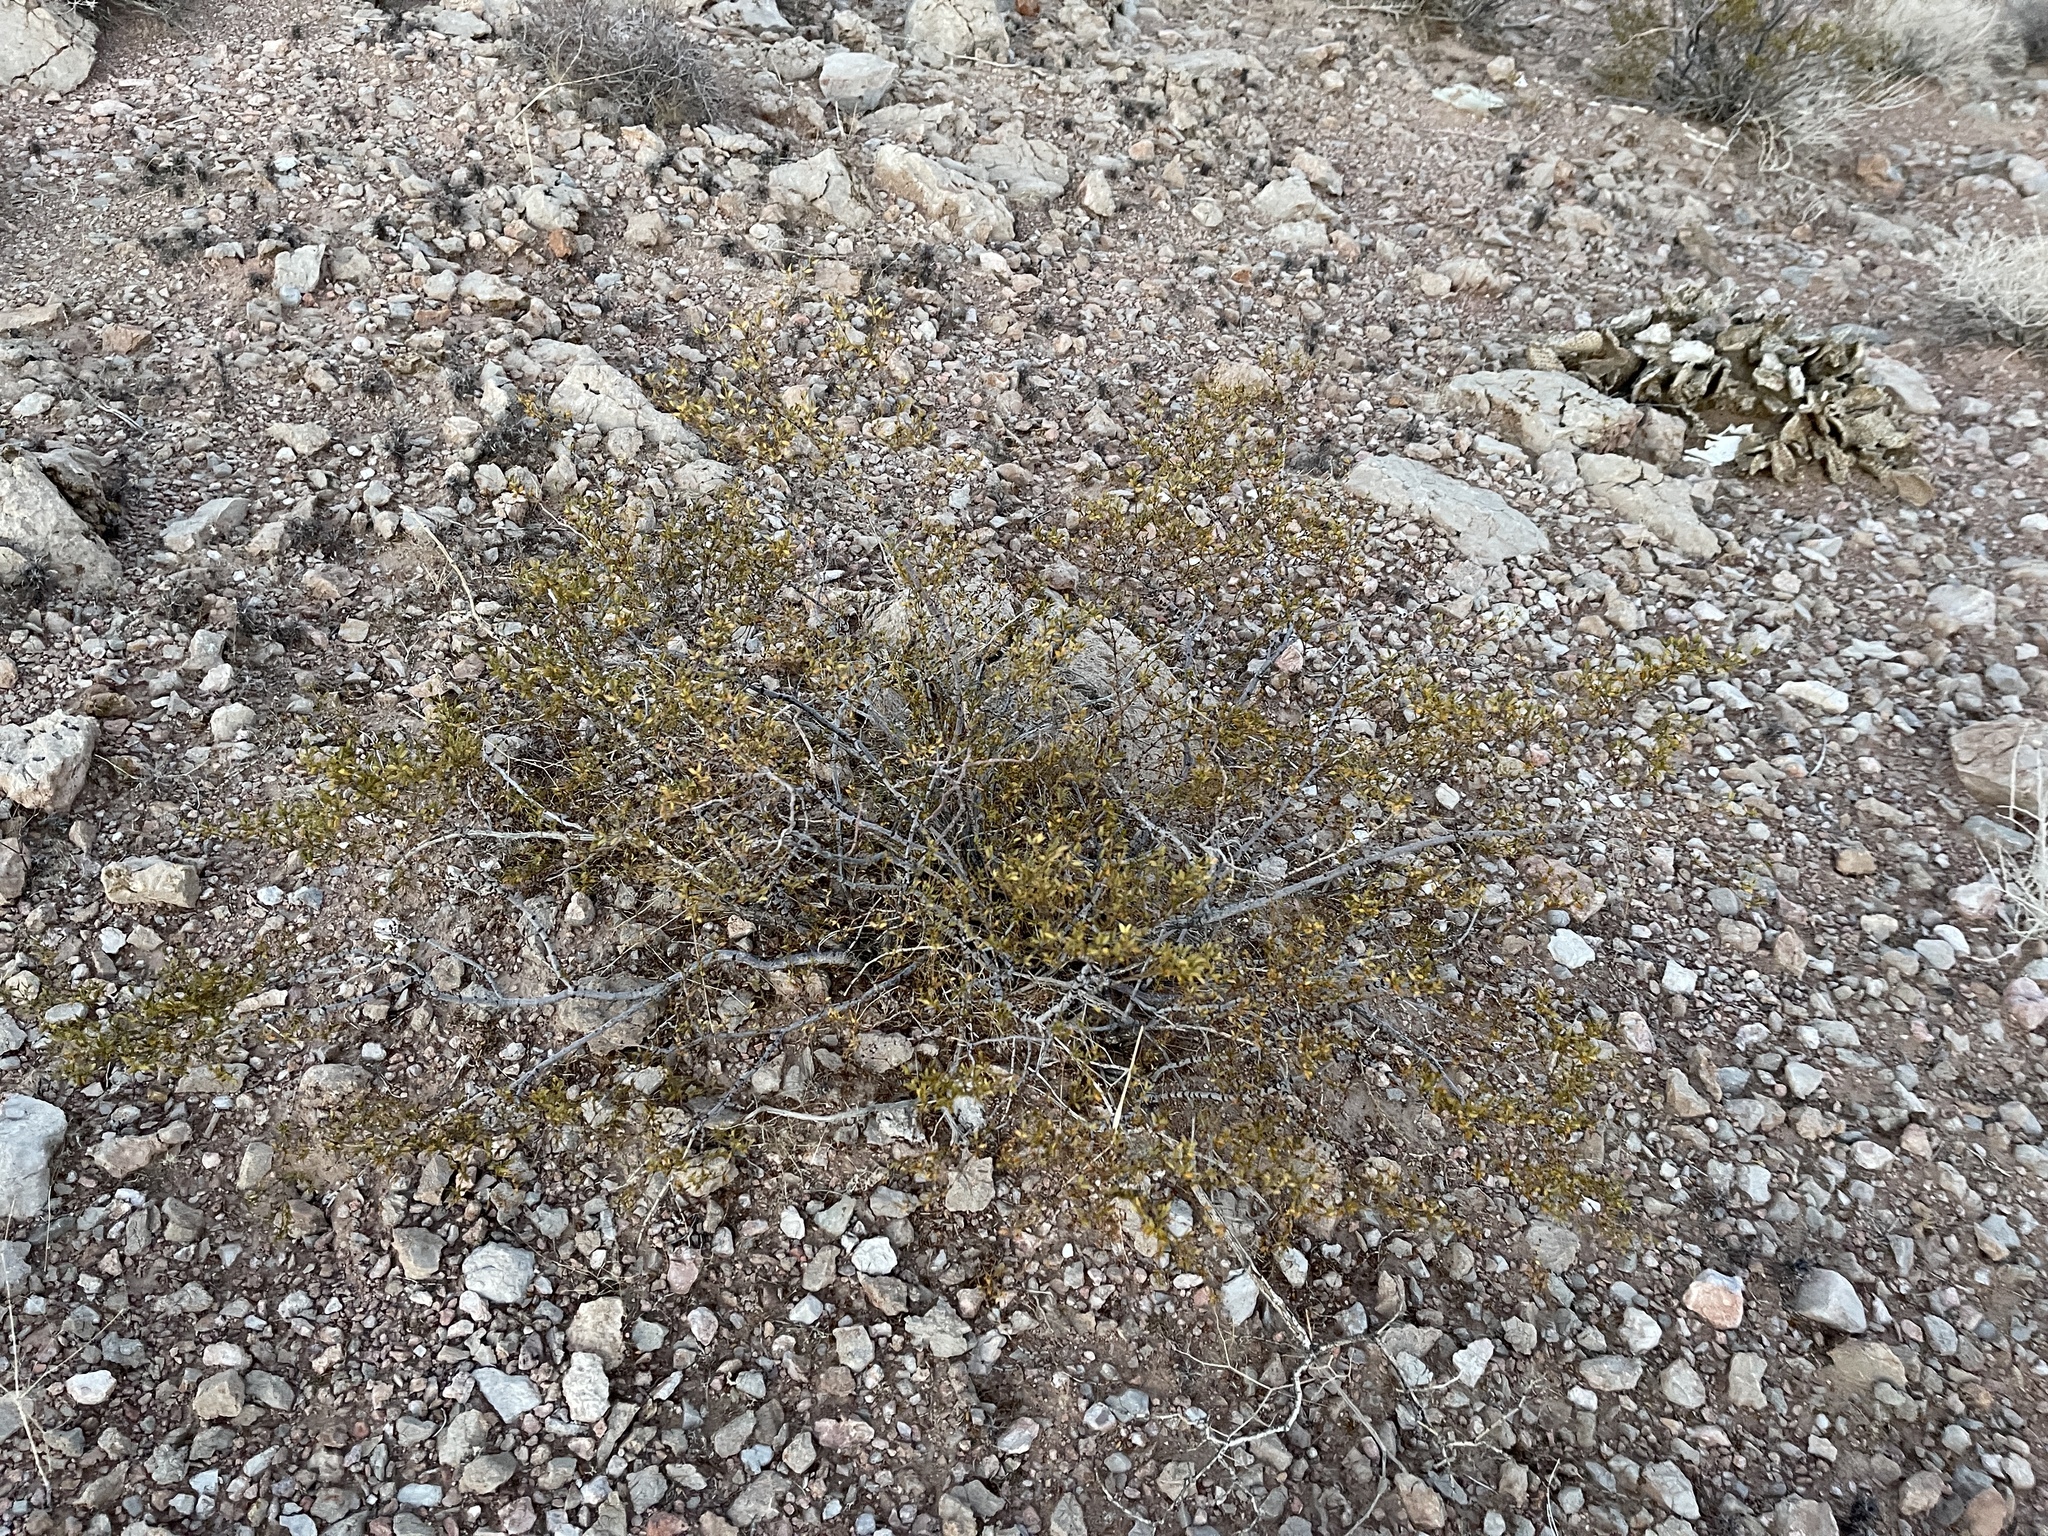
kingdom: Plantae
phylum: Tracheophyta
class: Magnoliopsida
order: Zygophyllales
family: Zygophyllaceae
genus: Larrea
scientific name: Larrea tridentata
